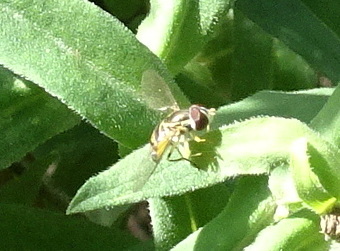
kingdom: Animalia
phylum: Arthropoda
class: Insecta
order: Diptera
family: Syrphidae
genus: Toxomerus
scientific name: Toxomerus
